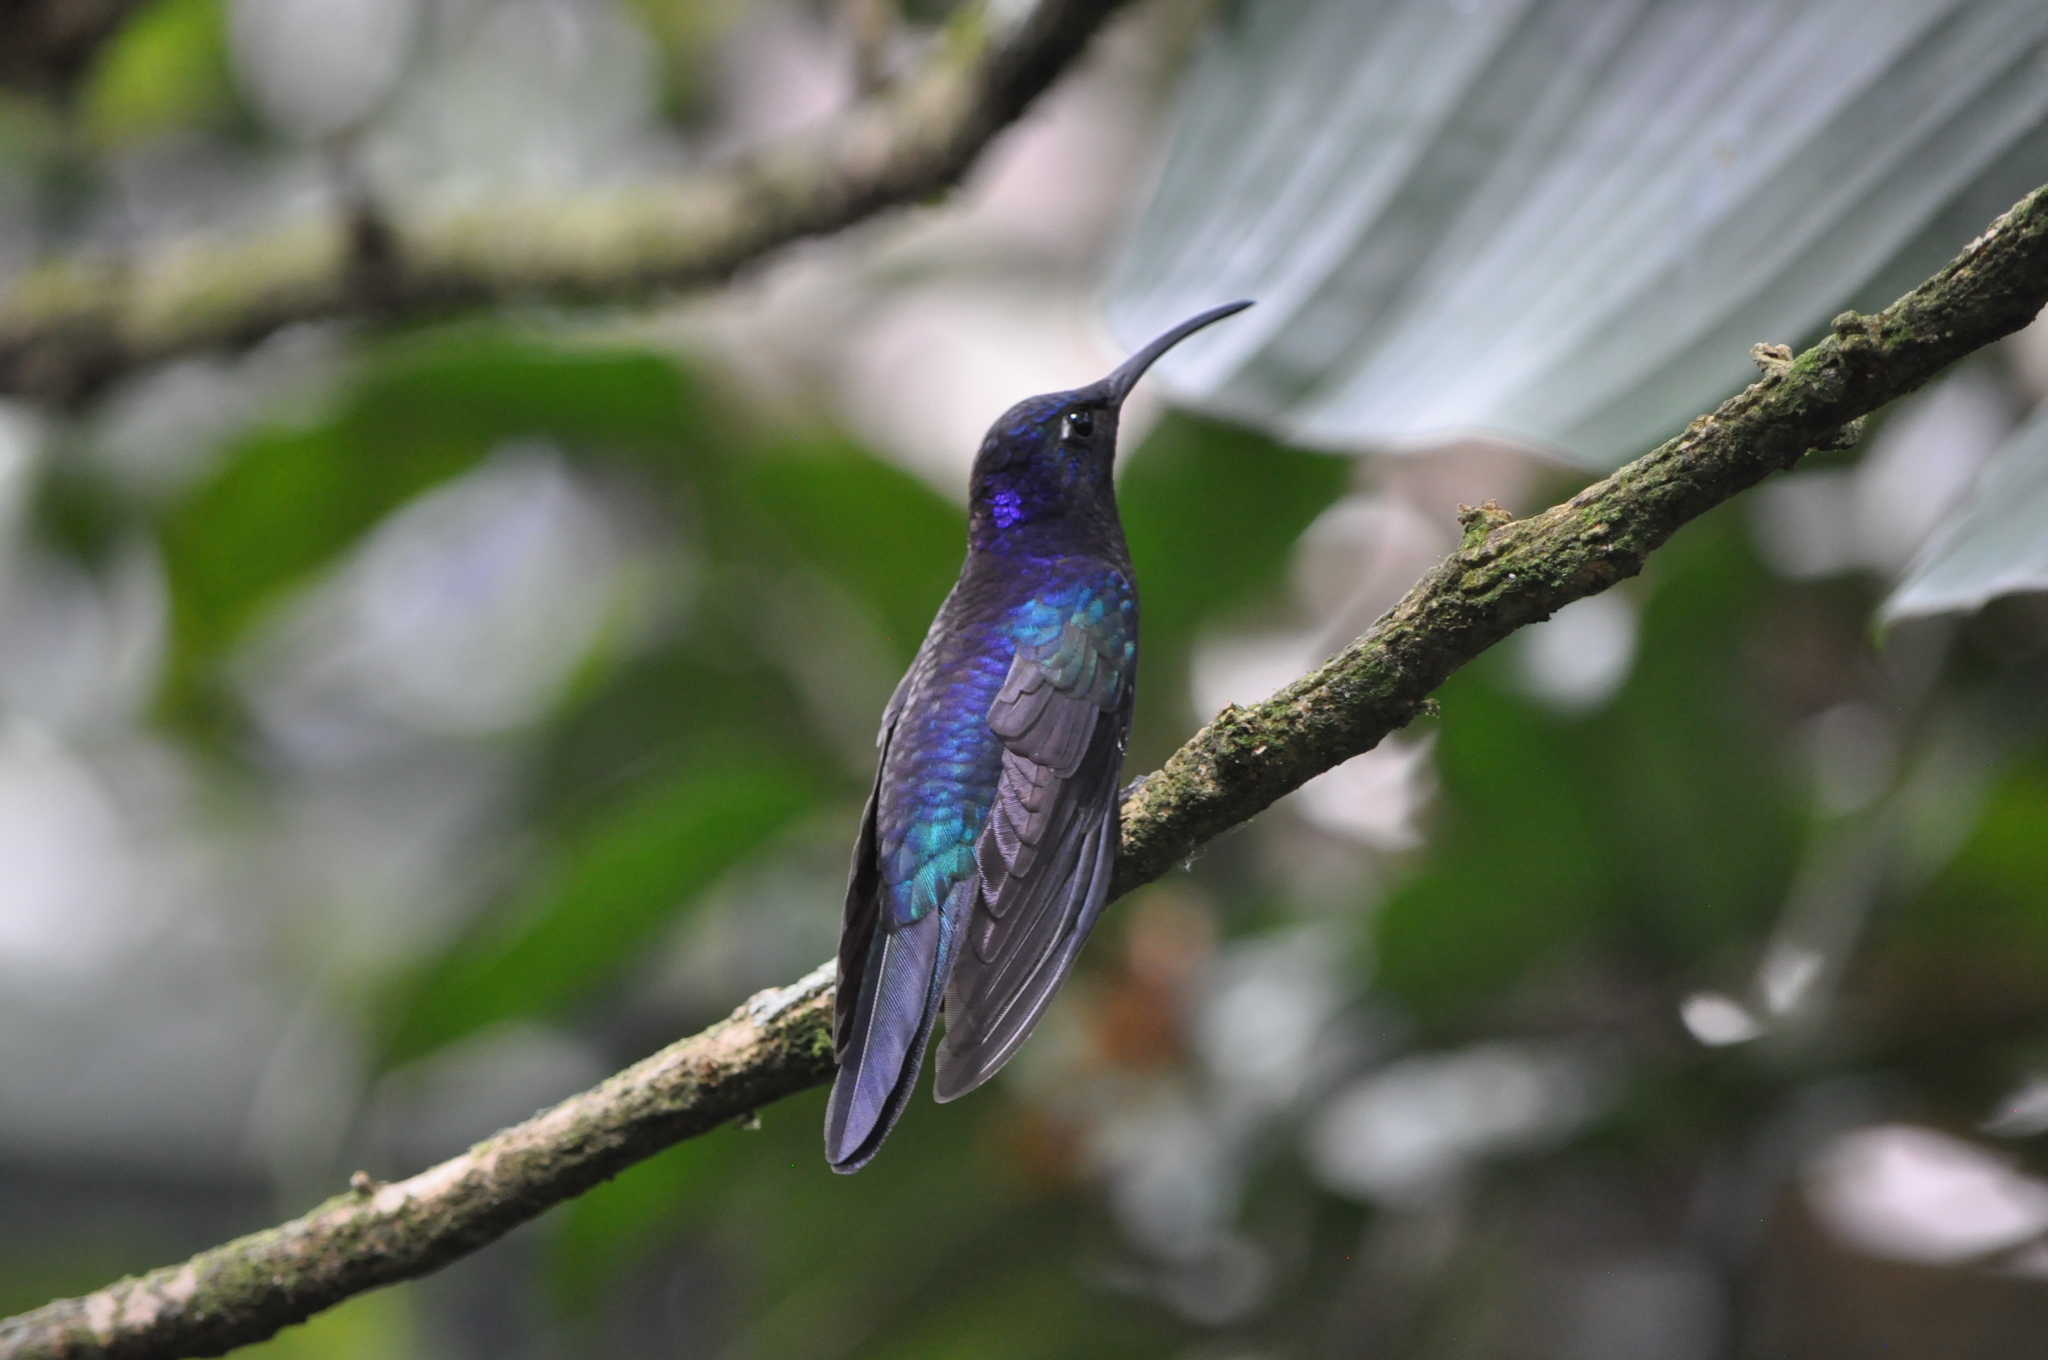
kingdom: Animalia
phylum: Chordata
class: Aves
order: Apodiformes
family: Trochilidae
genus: Campylopterus
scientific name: Campylopterus hemileucurus
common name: Violet sabrewing
